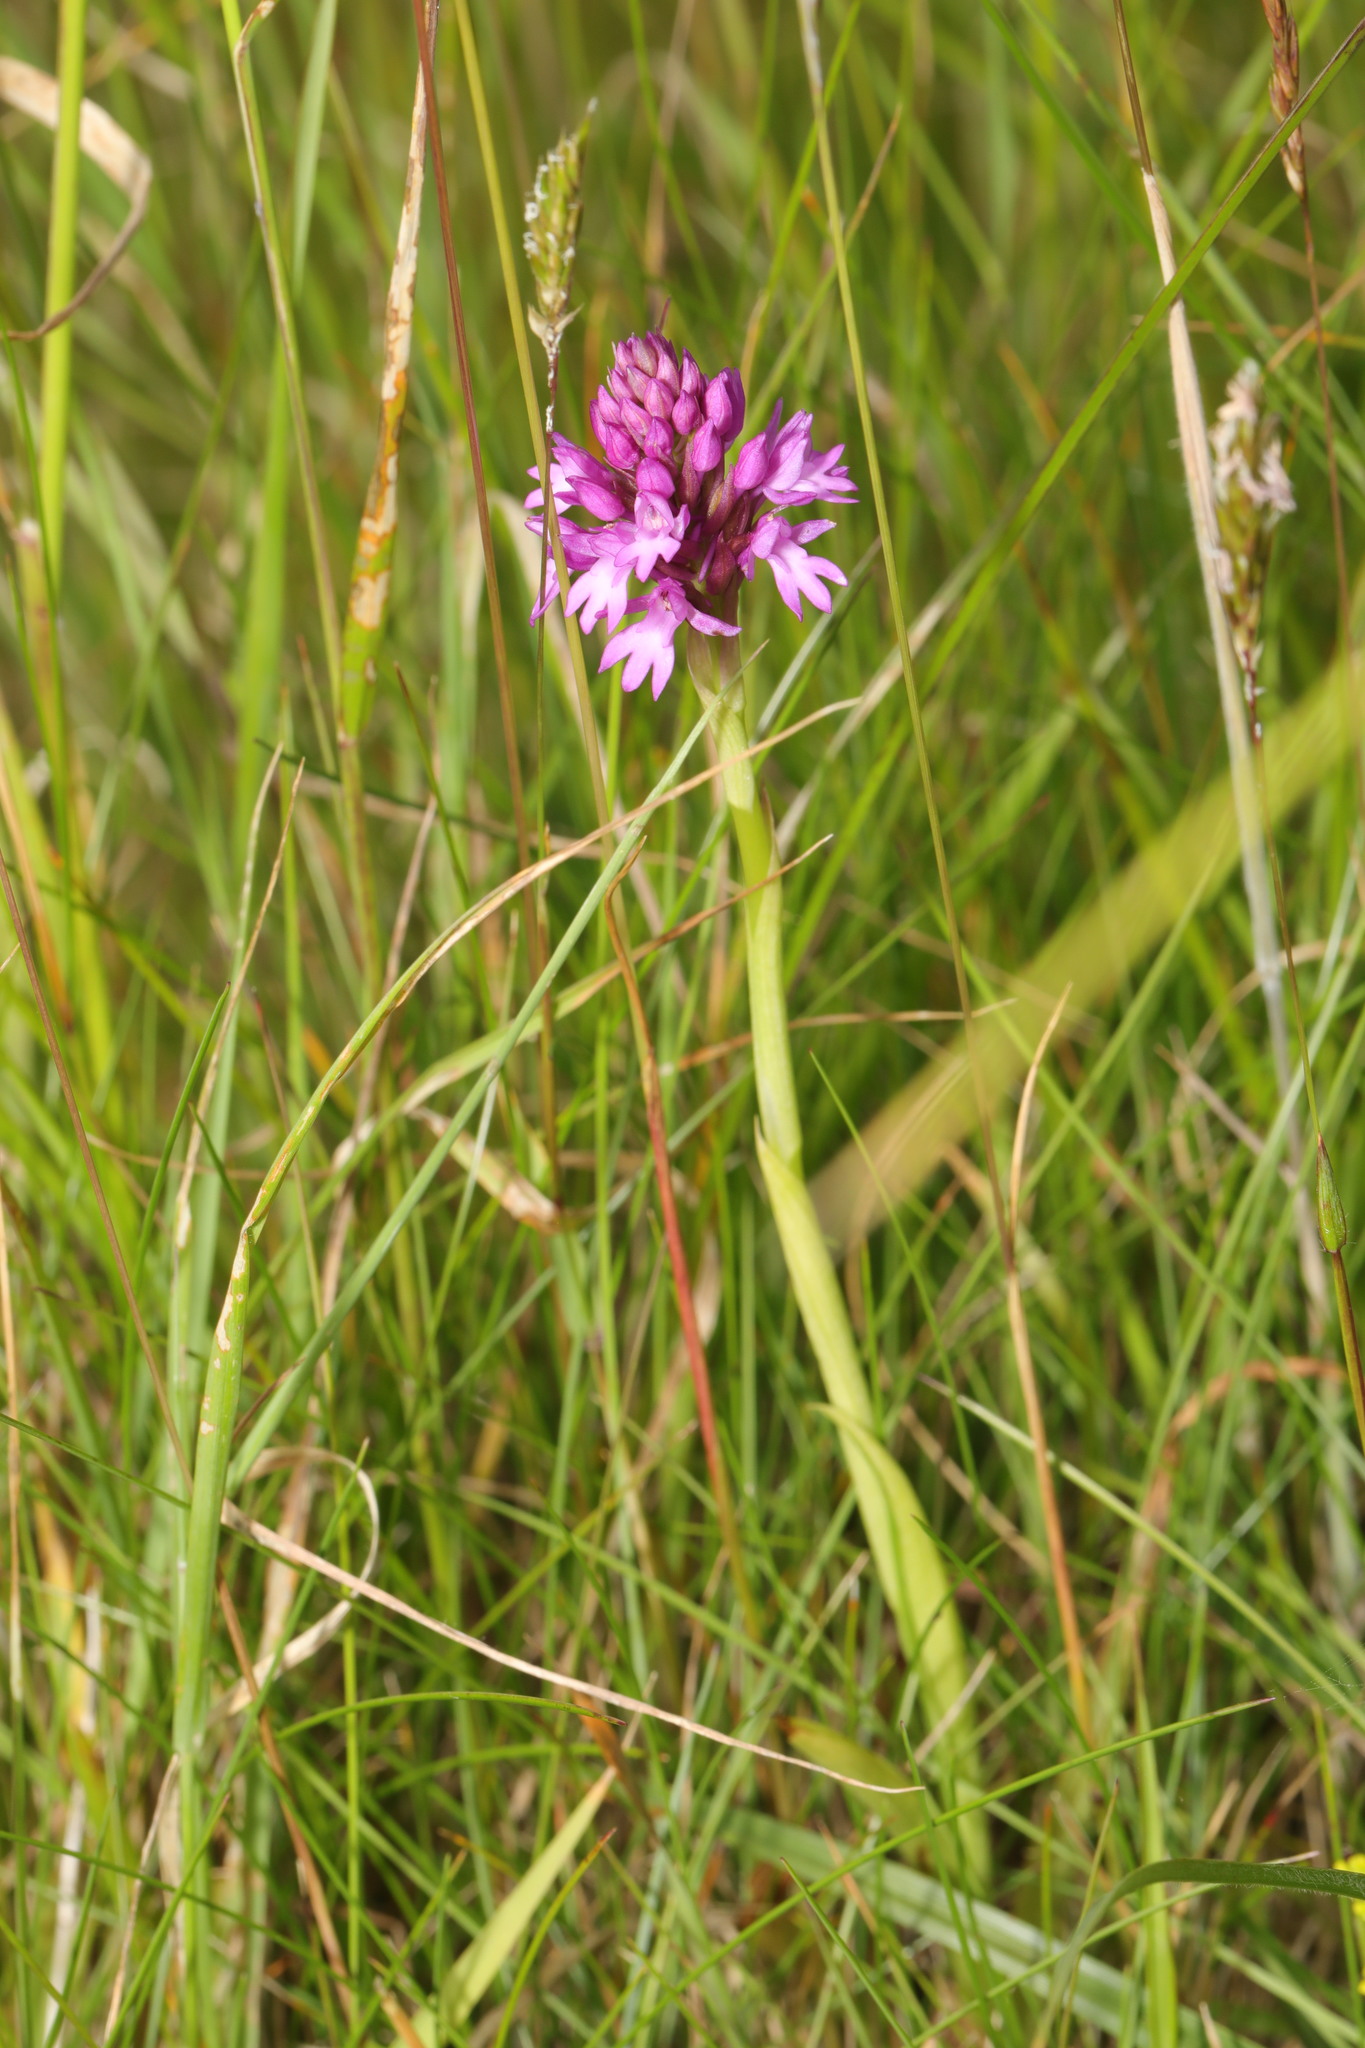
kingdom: Plantae
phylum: Tracheophyta
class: Liliopsida
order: Asparagales
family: Orchidaceae
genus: Anacamptis
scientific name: Anacamptis pyramidalis
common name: Pyramidal orchid
